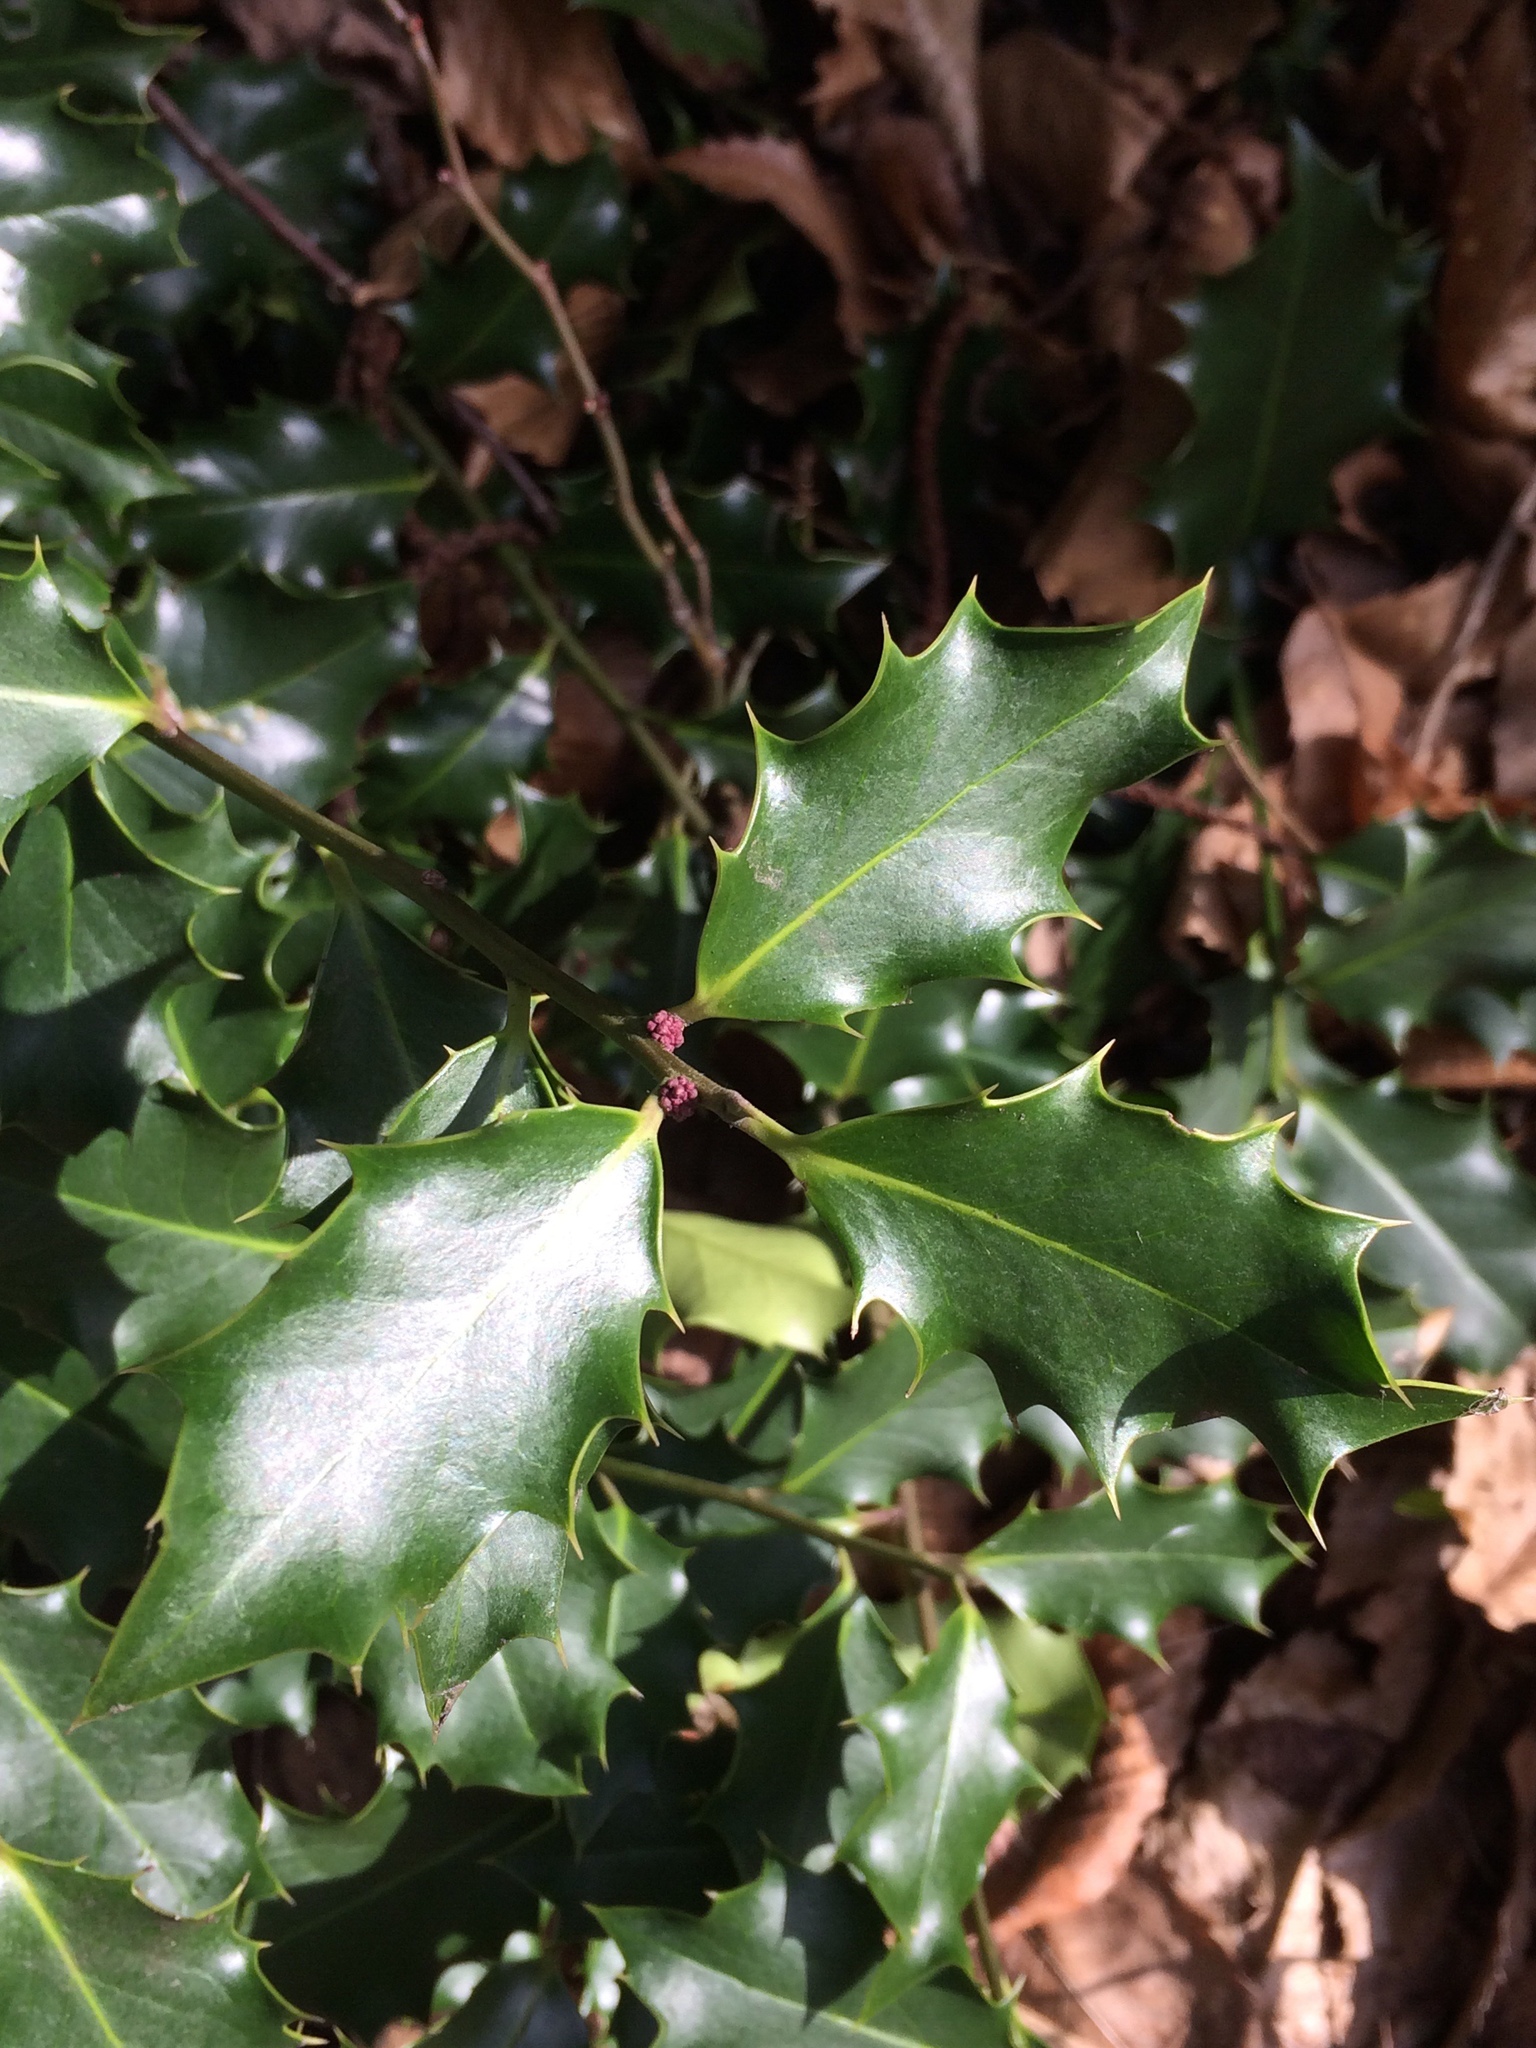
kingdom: Plantae
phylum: Tracheophyta
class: Magnoliopsida
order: Aquifoliales
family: Aquifoliaceae
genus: Ilex
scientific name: Ilex aquifolium
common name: English holly
